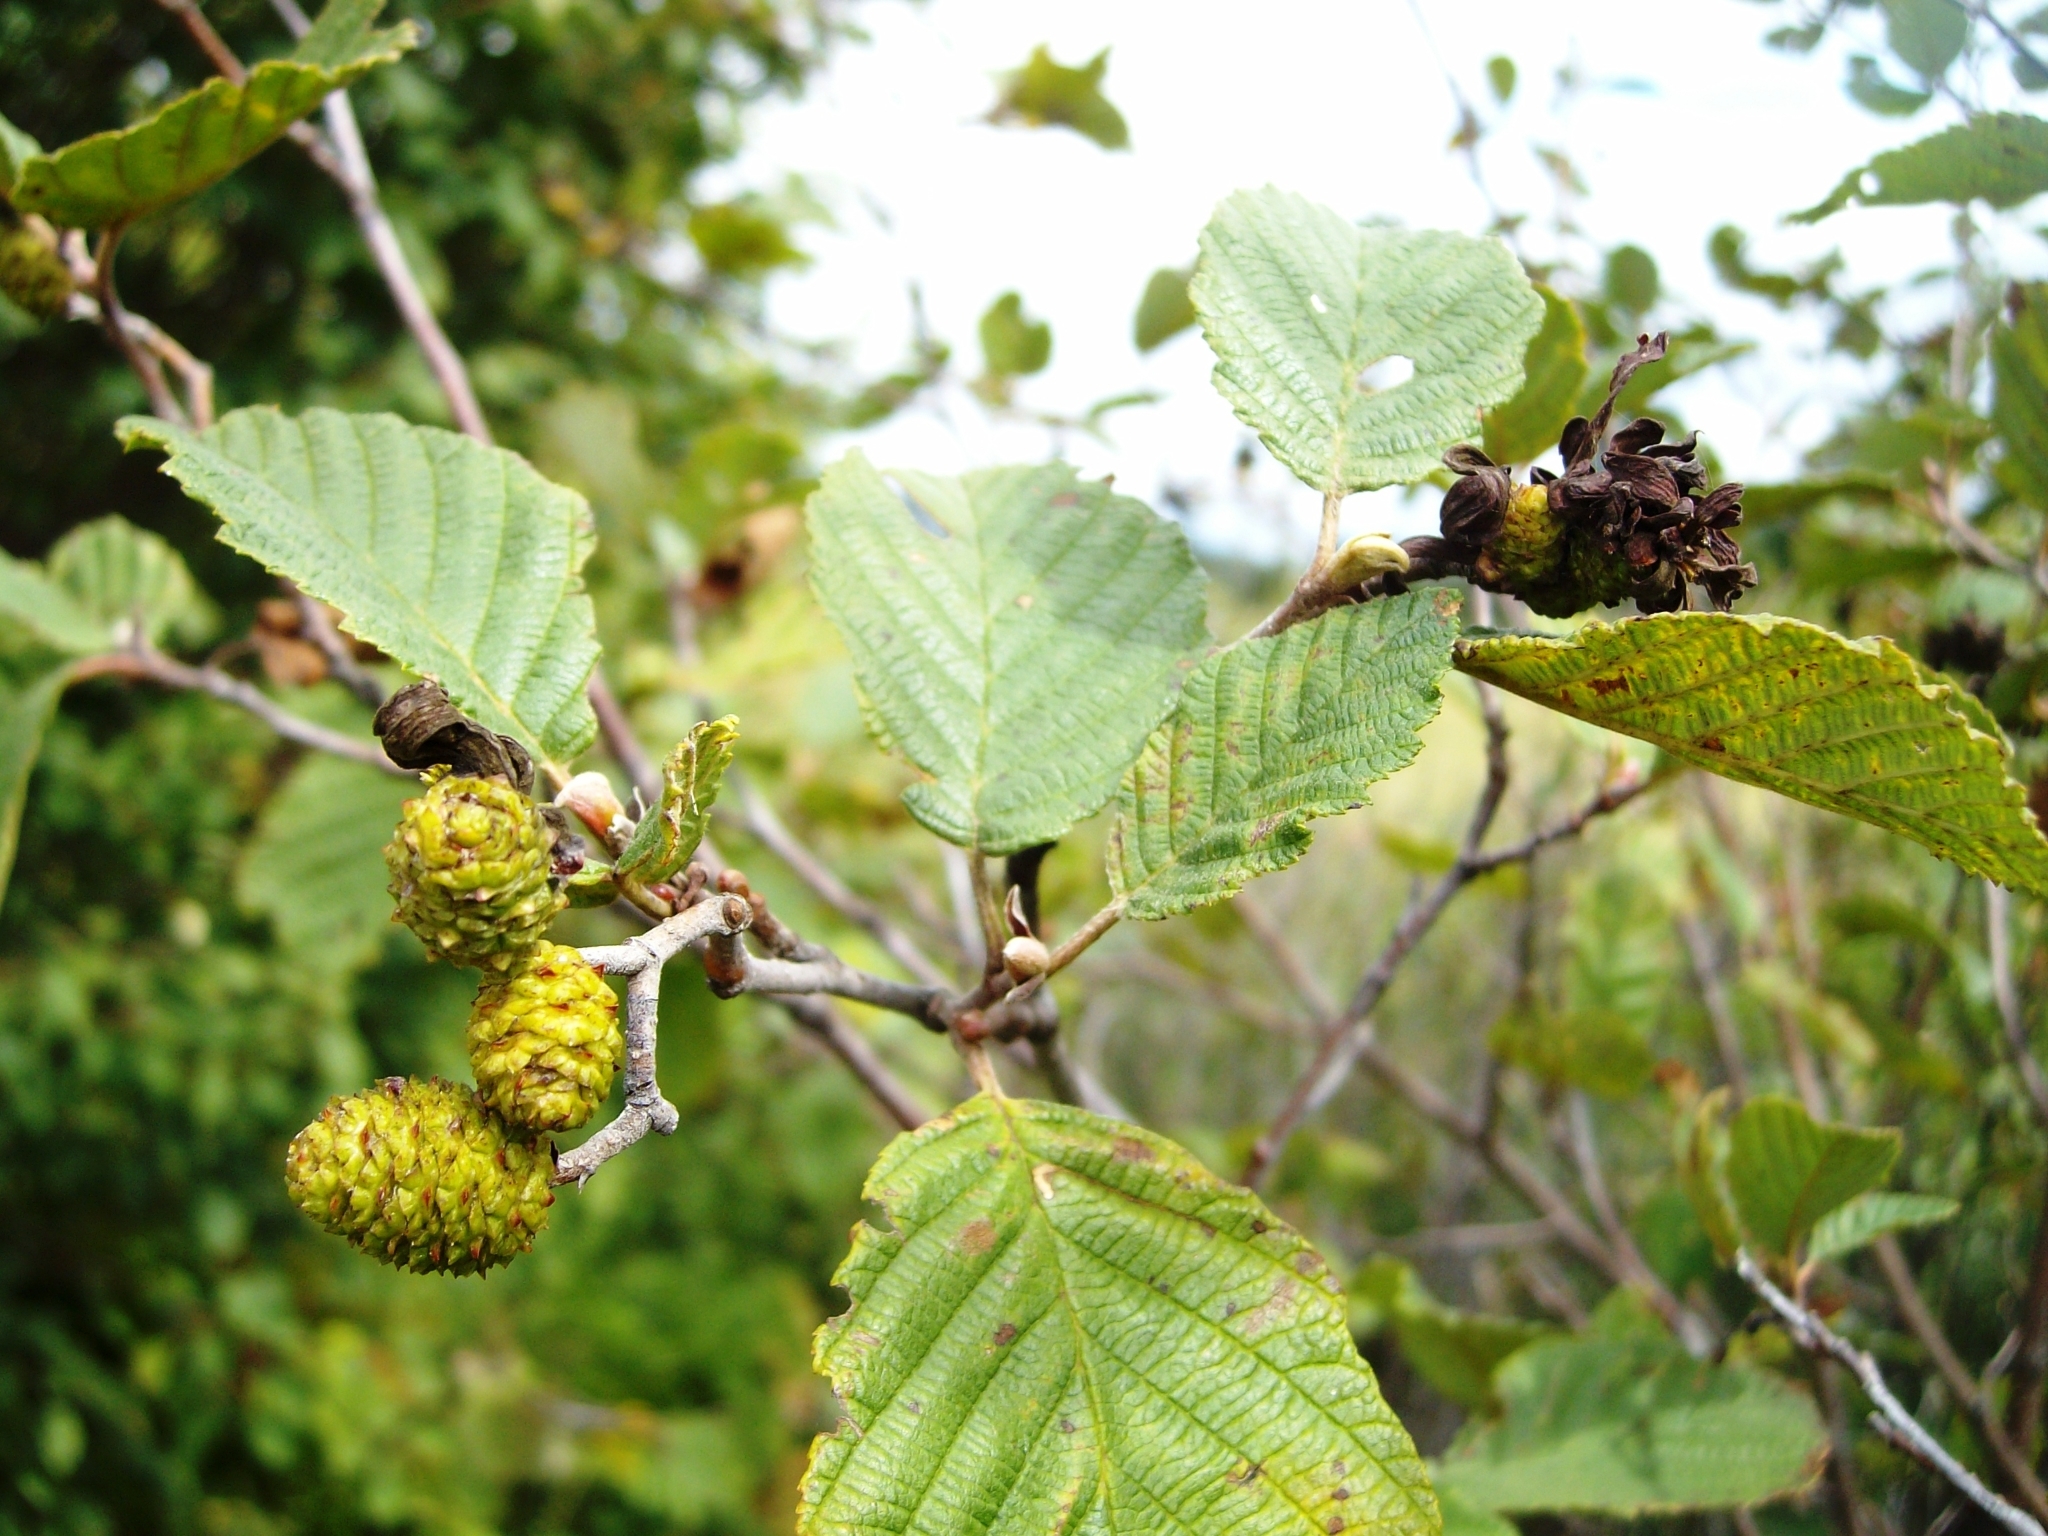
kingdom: Plantae
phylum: Tracheophyta
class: Magnoliopsida
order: Fagales
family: Betulaceae
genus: Alnus
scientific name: Alnus incana
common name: Grey alder
